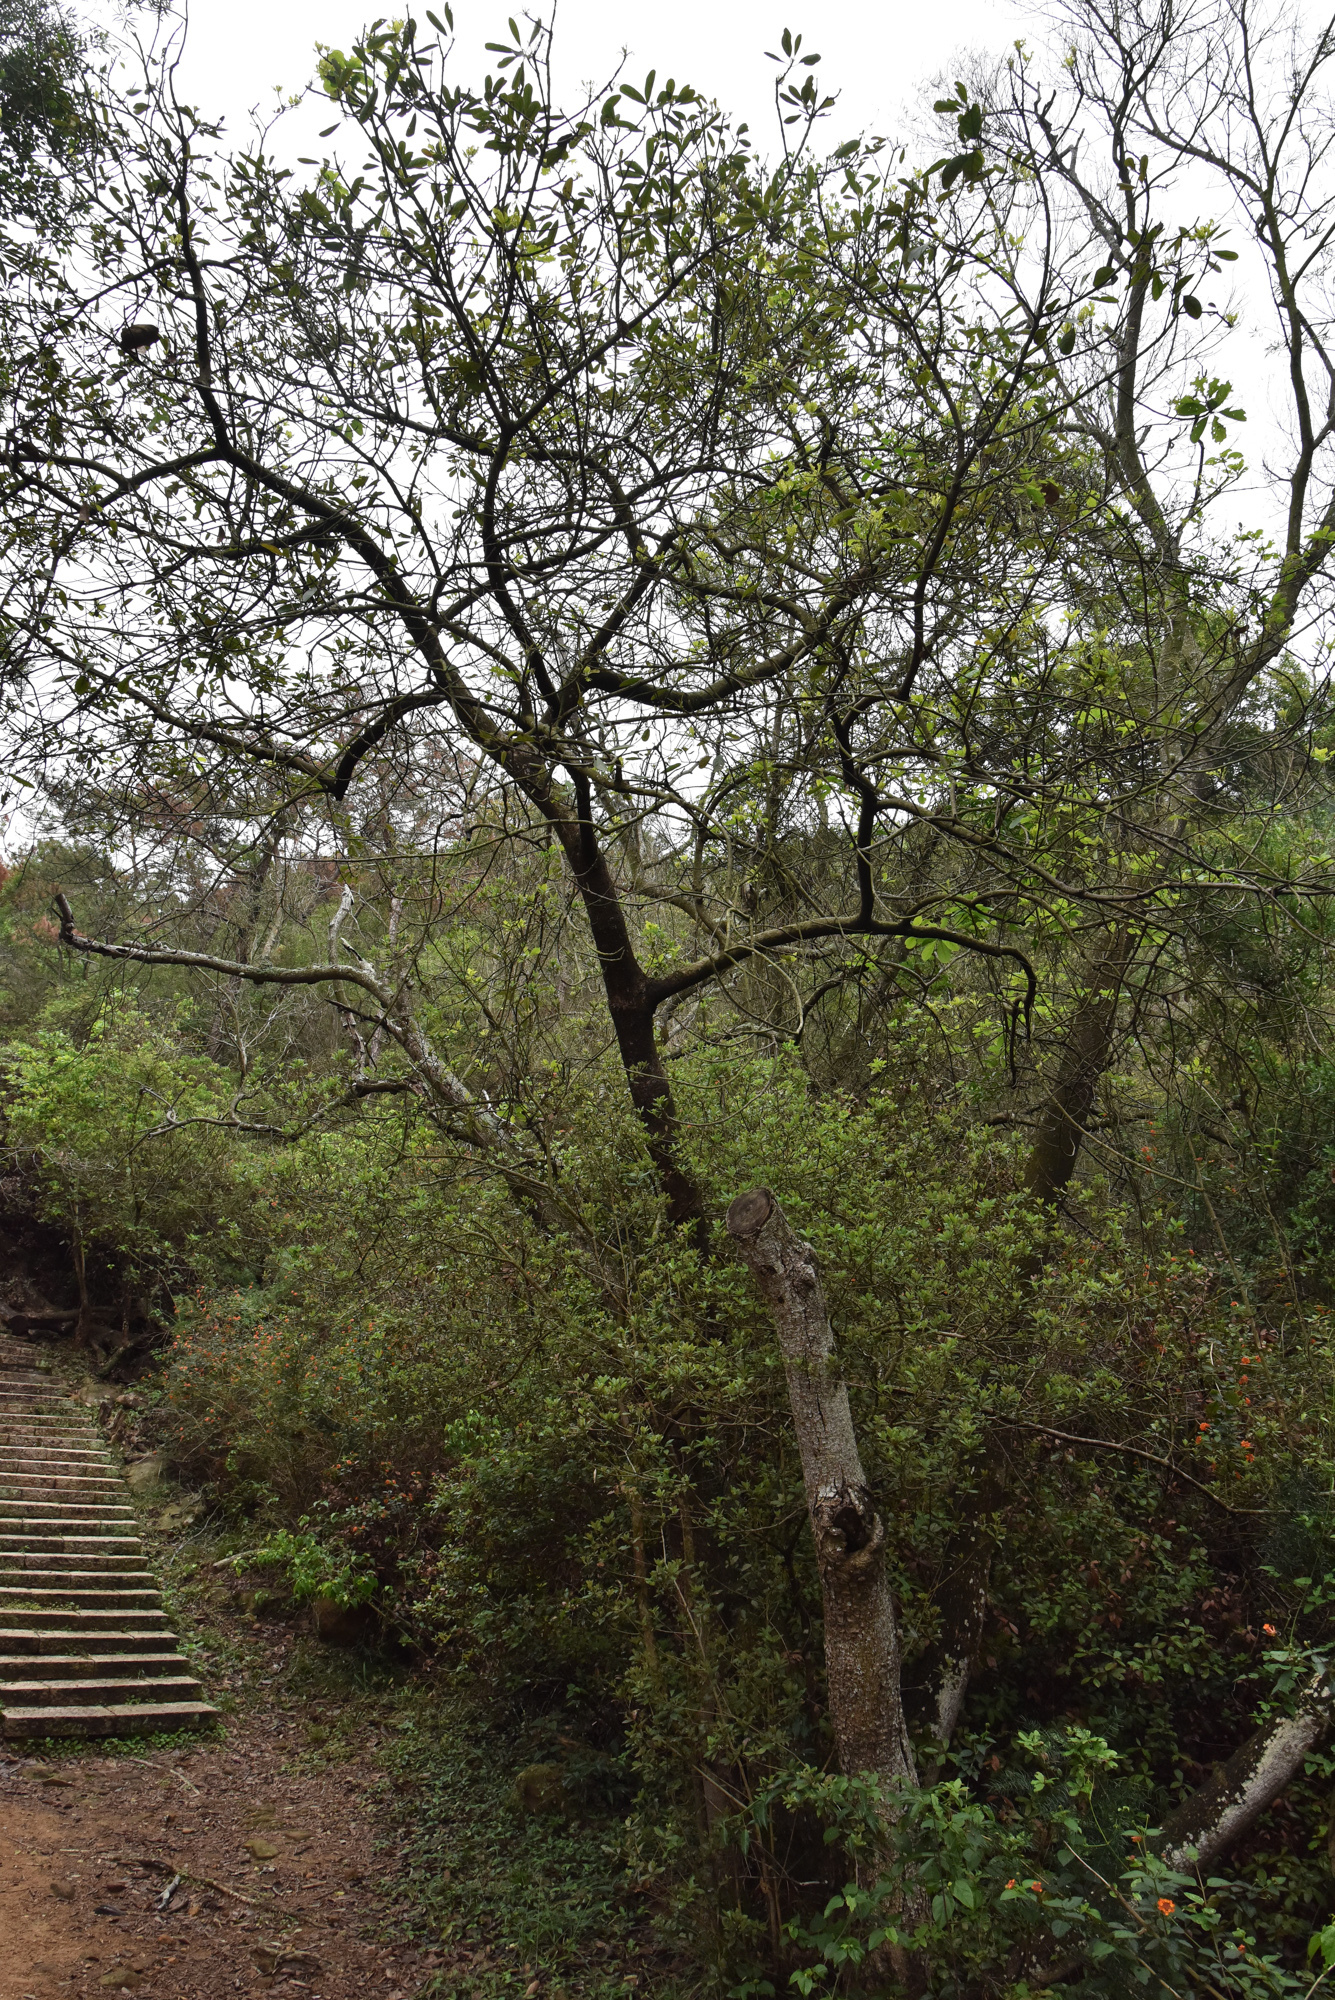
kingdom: Plantae
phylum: Tracheophyta
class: Magnoliopsida
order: Laurales
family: Lauraceae
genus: Litsea
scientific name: Litsea glutinosa
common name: Indian-laurel
